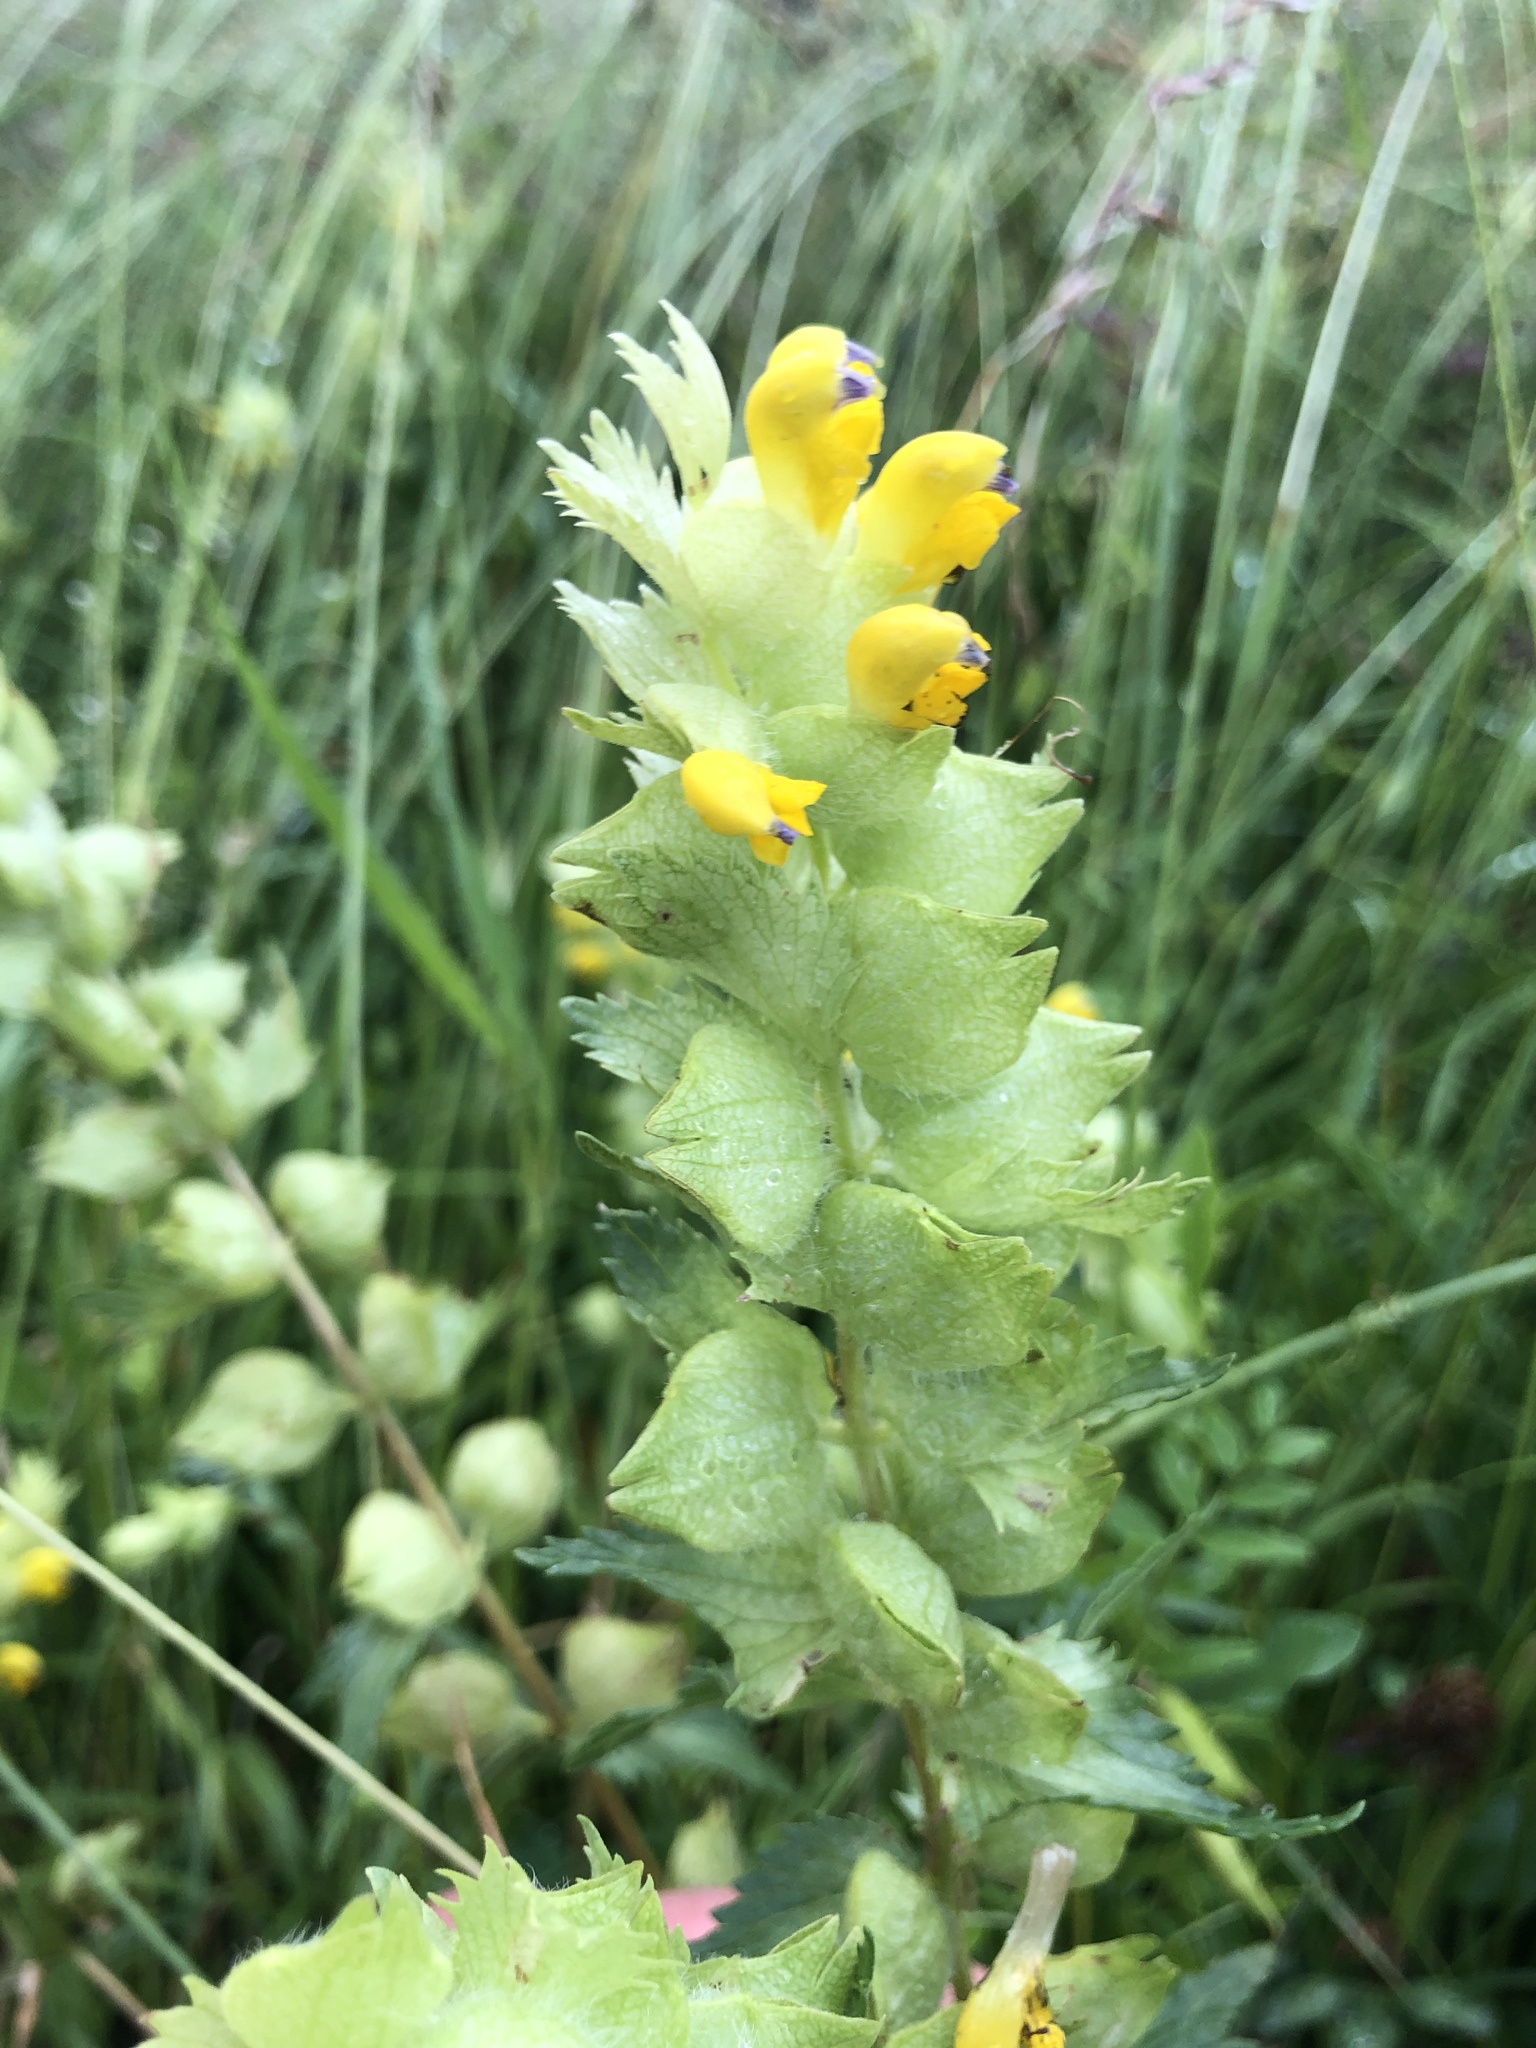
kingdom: Plantae
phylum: Tracheophyta
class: Magnoliopsida
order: Lamiales
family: Orobanchaceae
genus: Rhinanthus
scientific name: Rhinanthus alectorolophus
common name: Greater yellow-rattle
